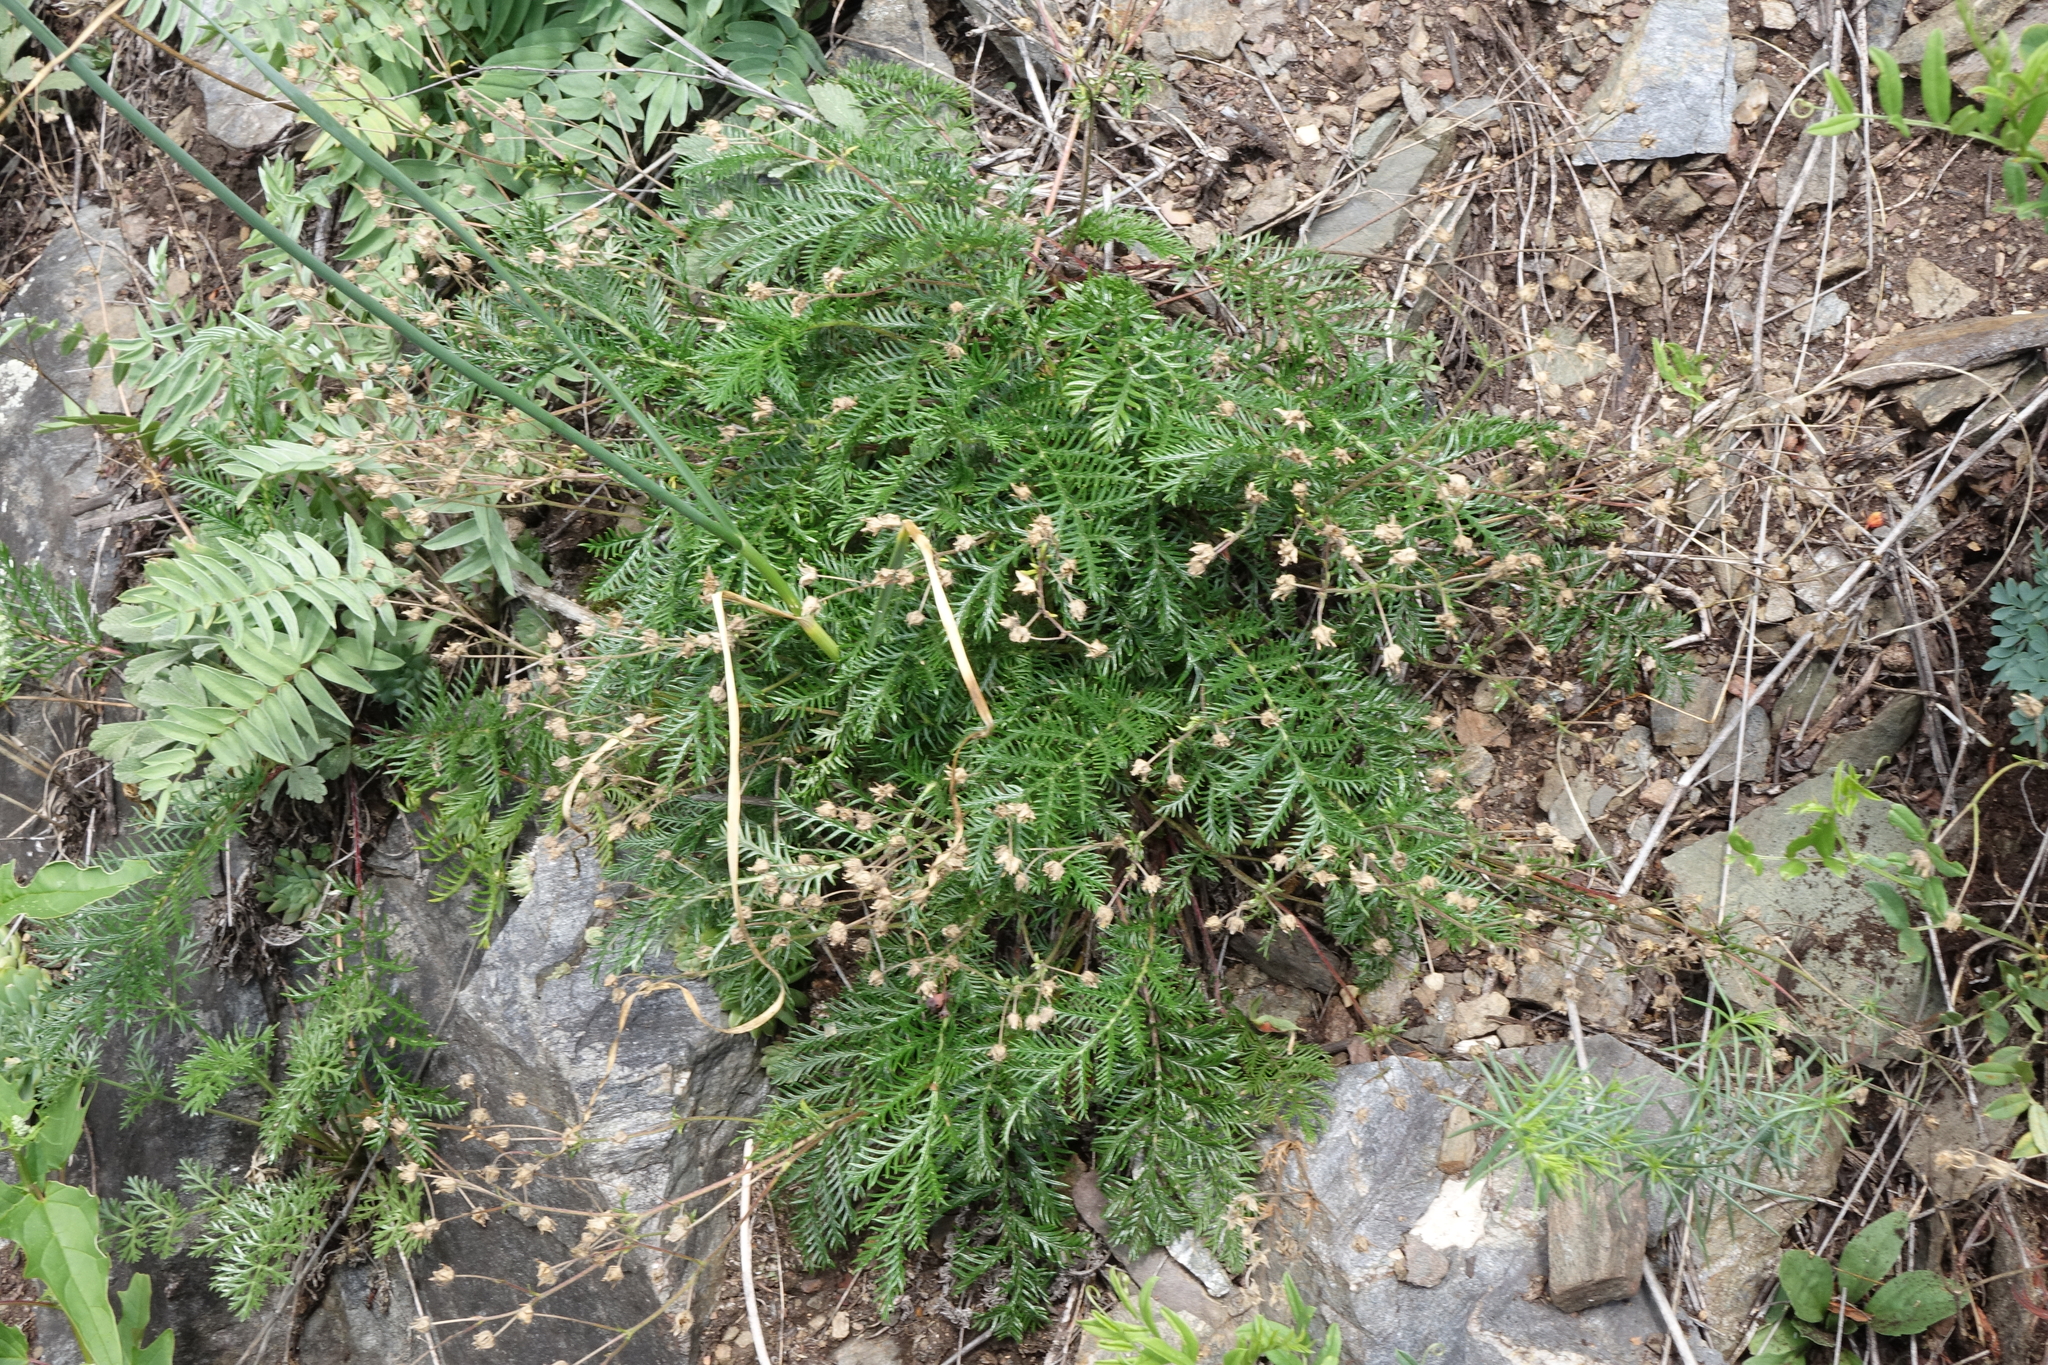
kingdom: Plantae
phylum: Tracheophyta
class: Magnoliopsida
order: Rosales
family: Rosaceae
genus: Potentilla
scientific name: Potentilla sericea
